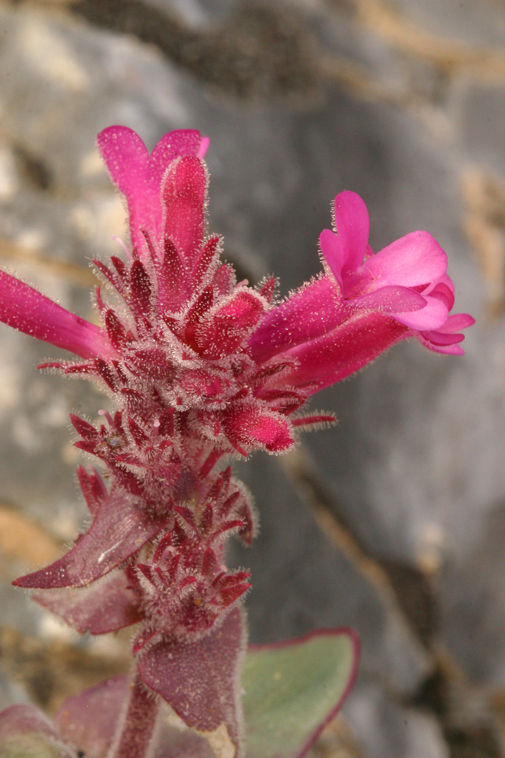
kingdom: Plantae
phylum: Tracheophyta
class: Magnoliopsida
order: Lamiales
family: Plantaginaceae
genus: Penstemon
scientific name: Penstemon calcareus
